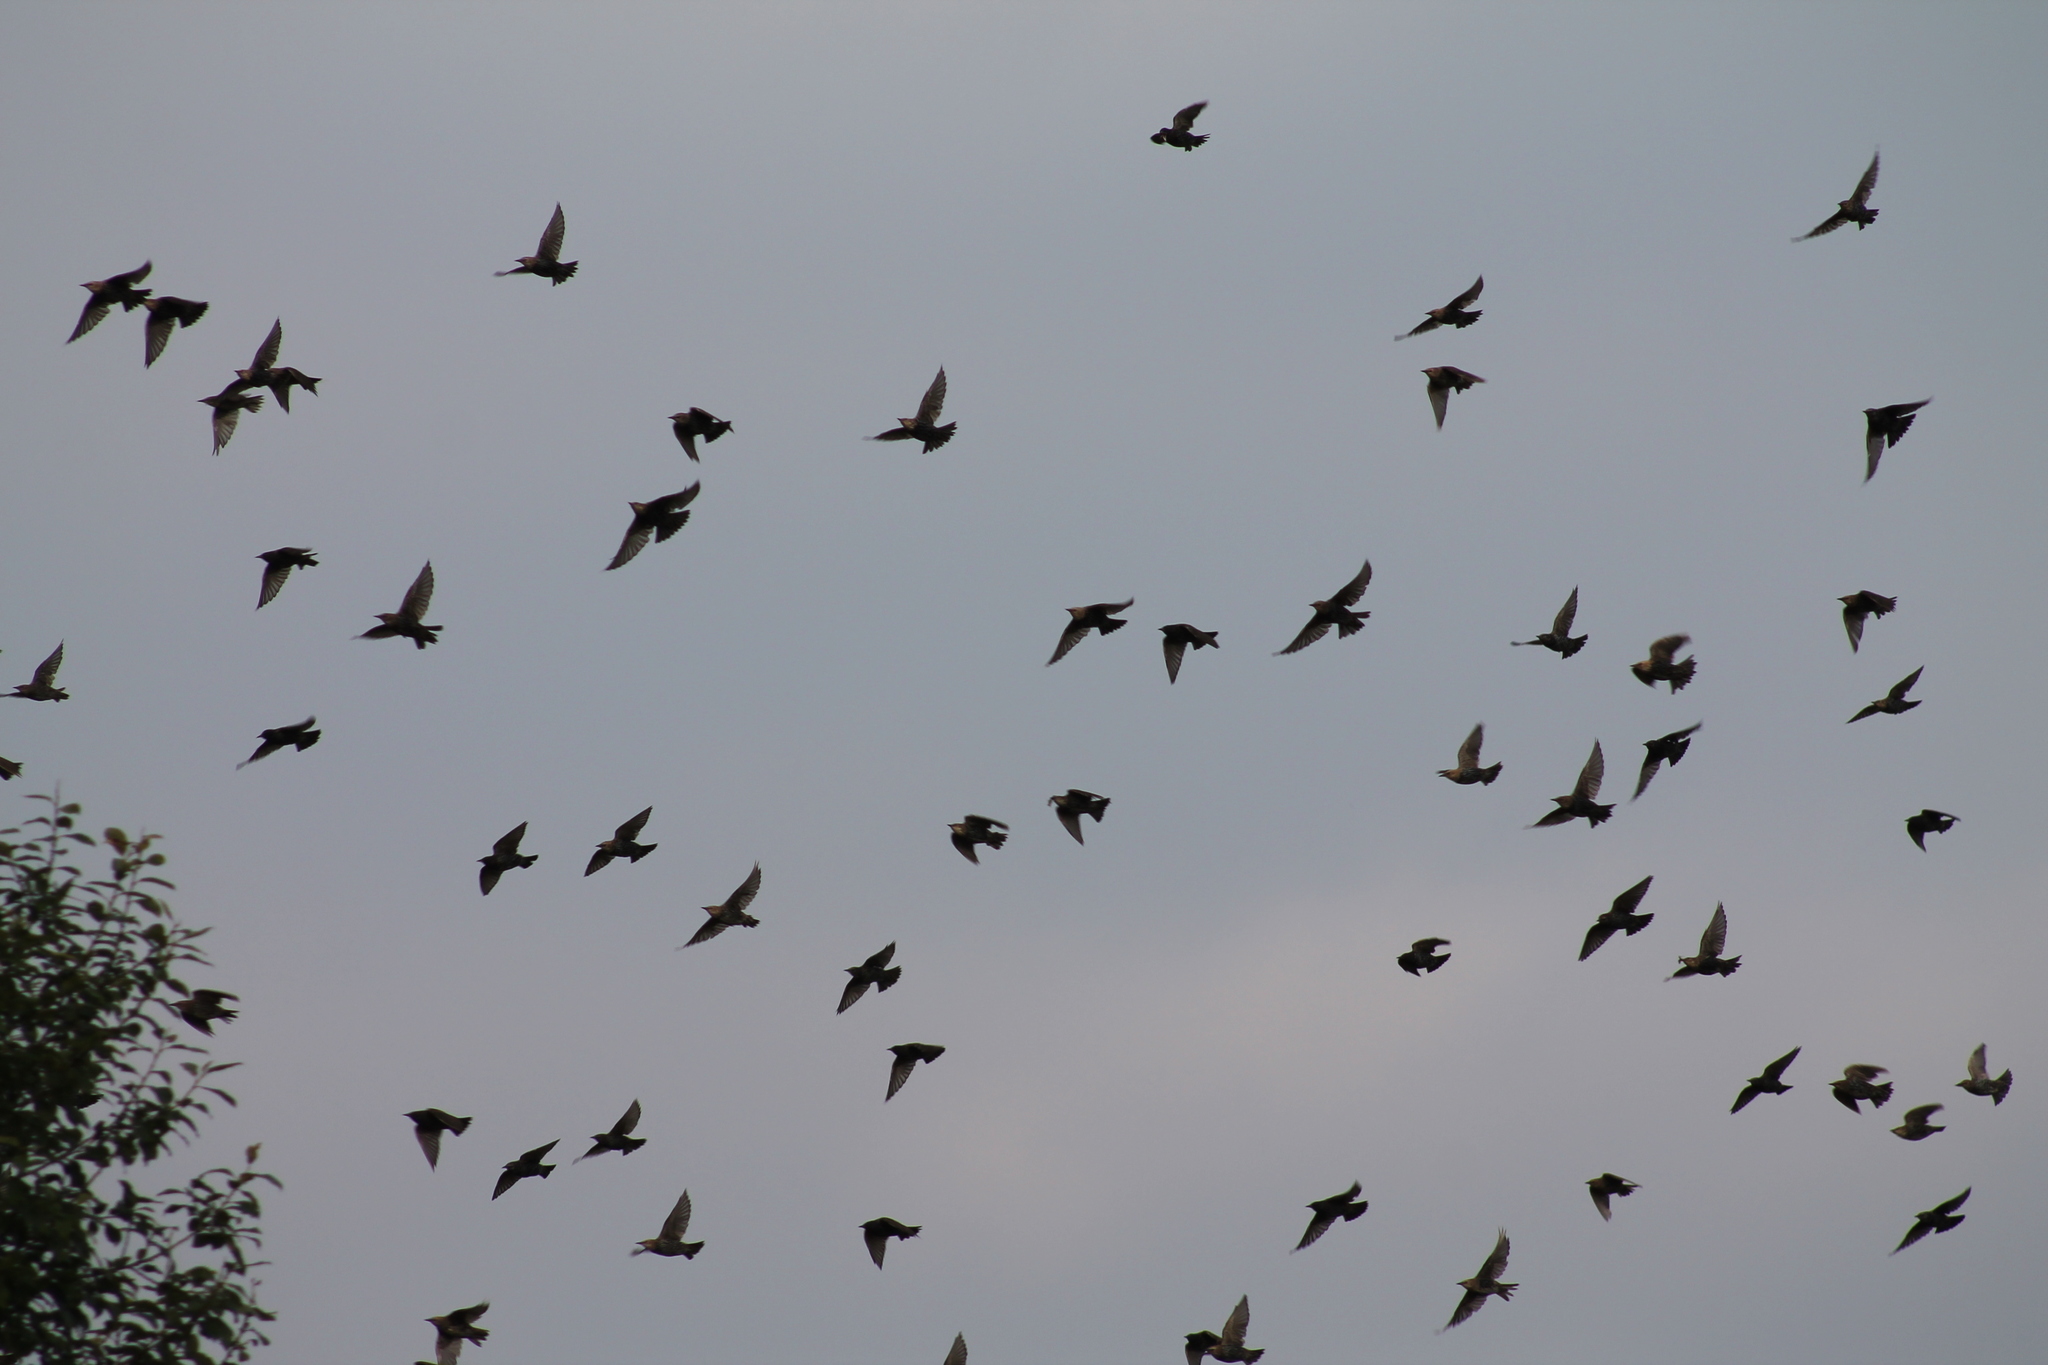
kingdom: Animalia
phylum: Chordata
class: Aves
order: Passeriformes
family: Sturnidae
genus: Sturnus
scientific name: Sturnus vulgaris
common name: Common starling
